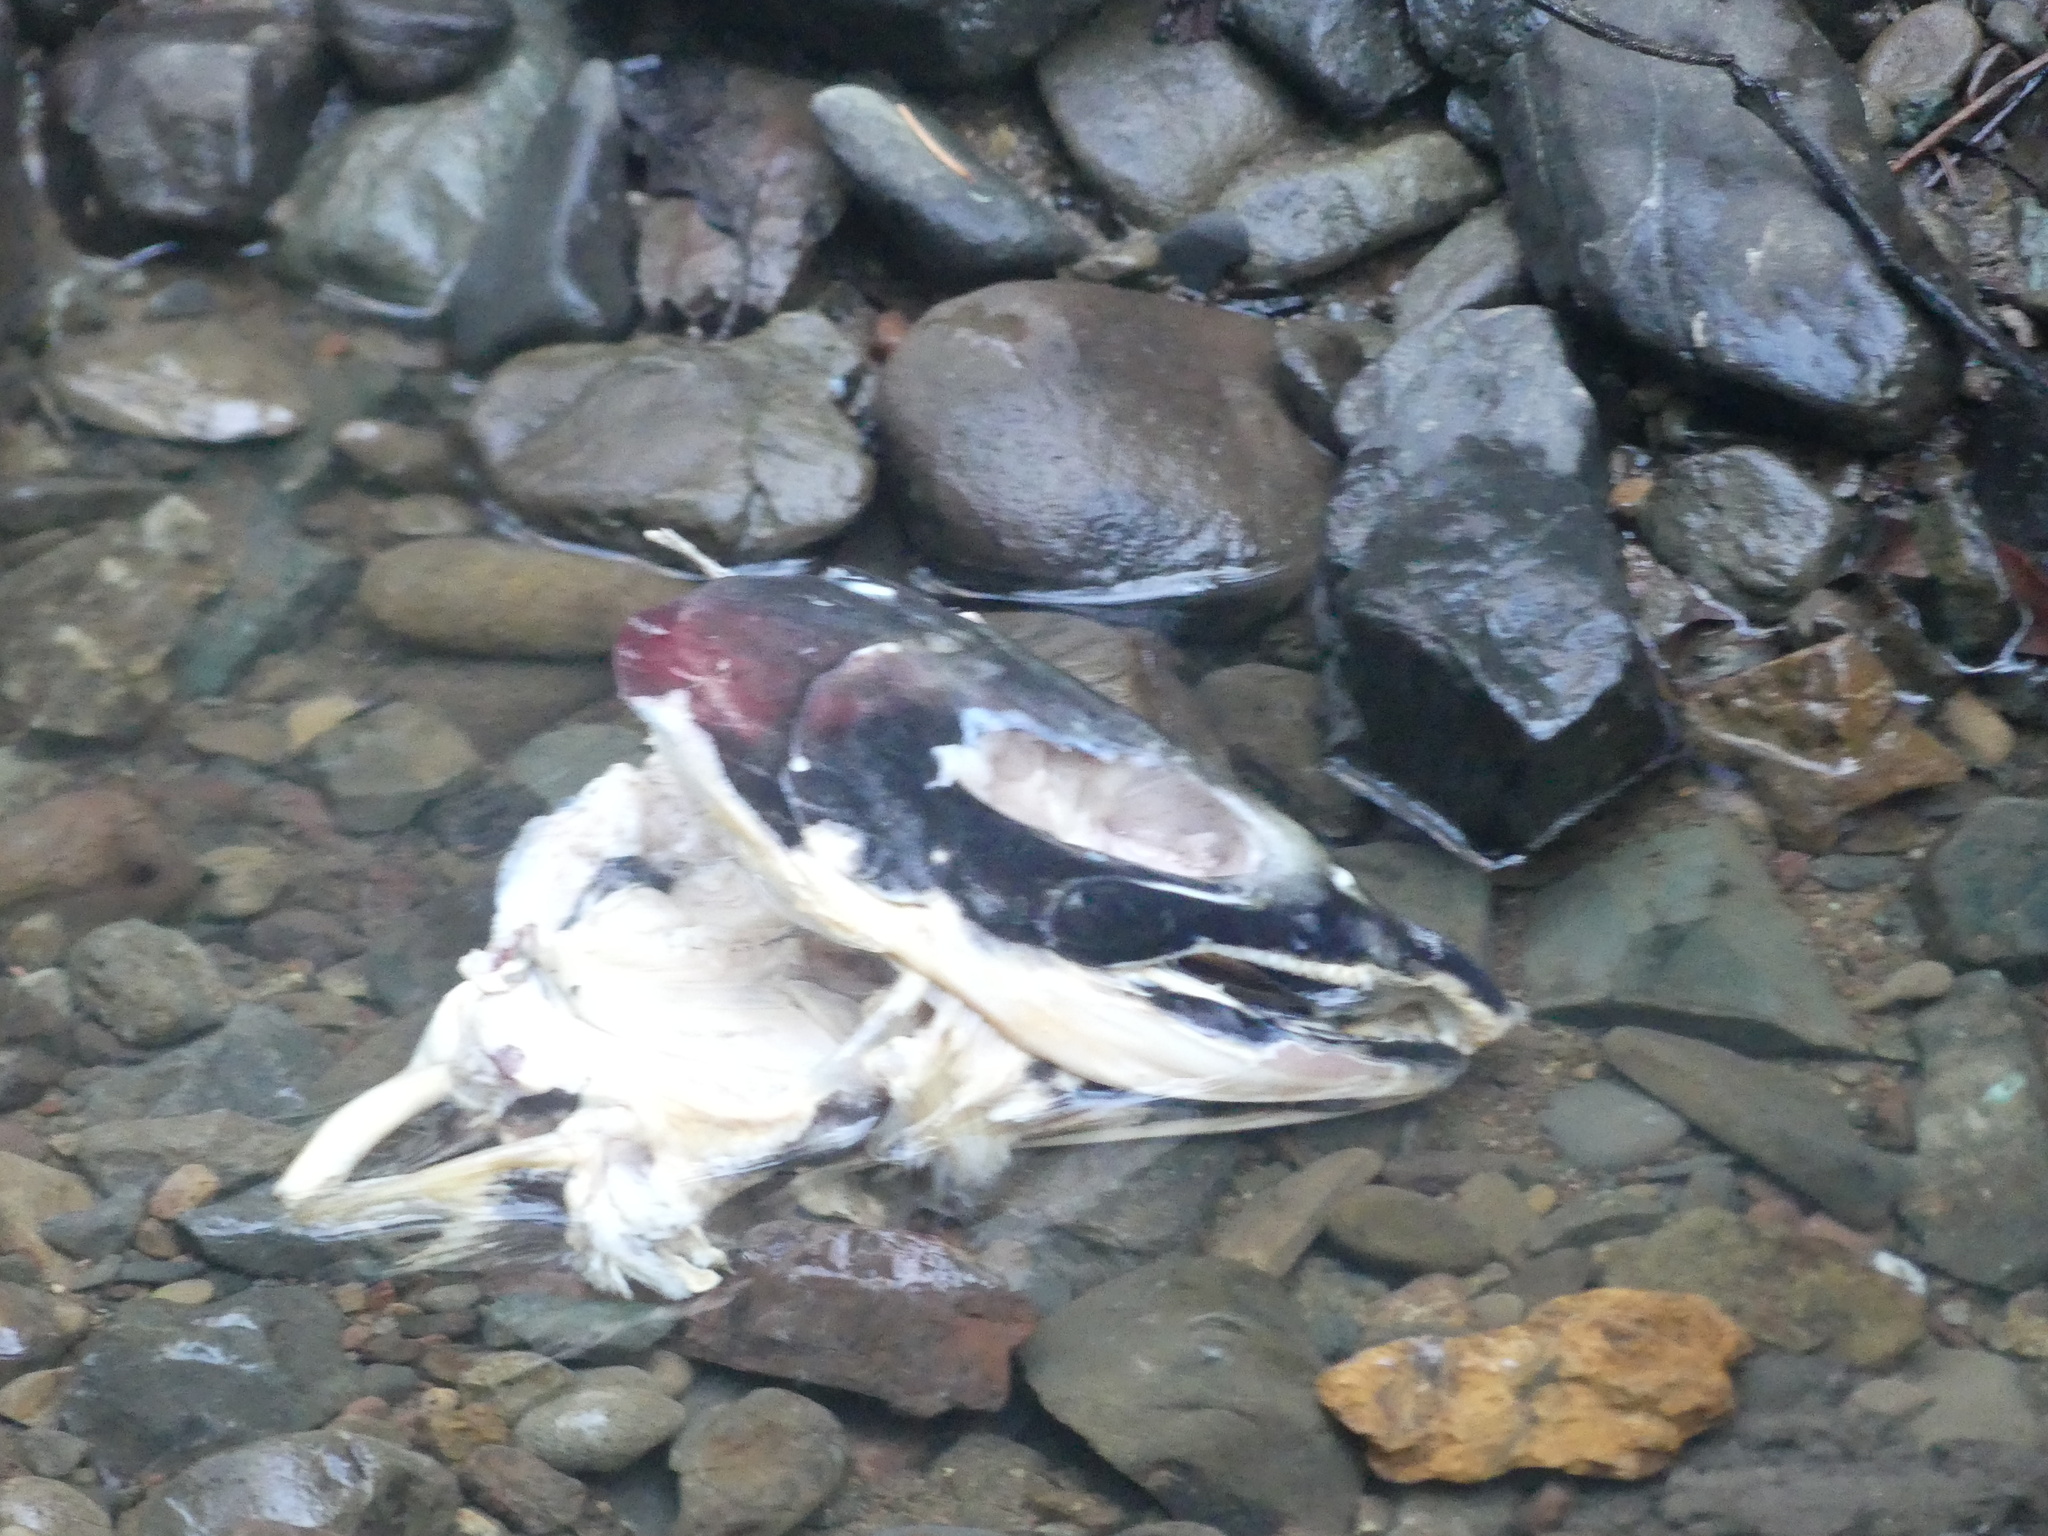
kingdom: Animalia
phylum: Chordata
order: Salmoniformes
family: Salmonidae
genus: Oncorhynchus
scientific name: Oncorhynchus kisutch
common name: Coho salmon
